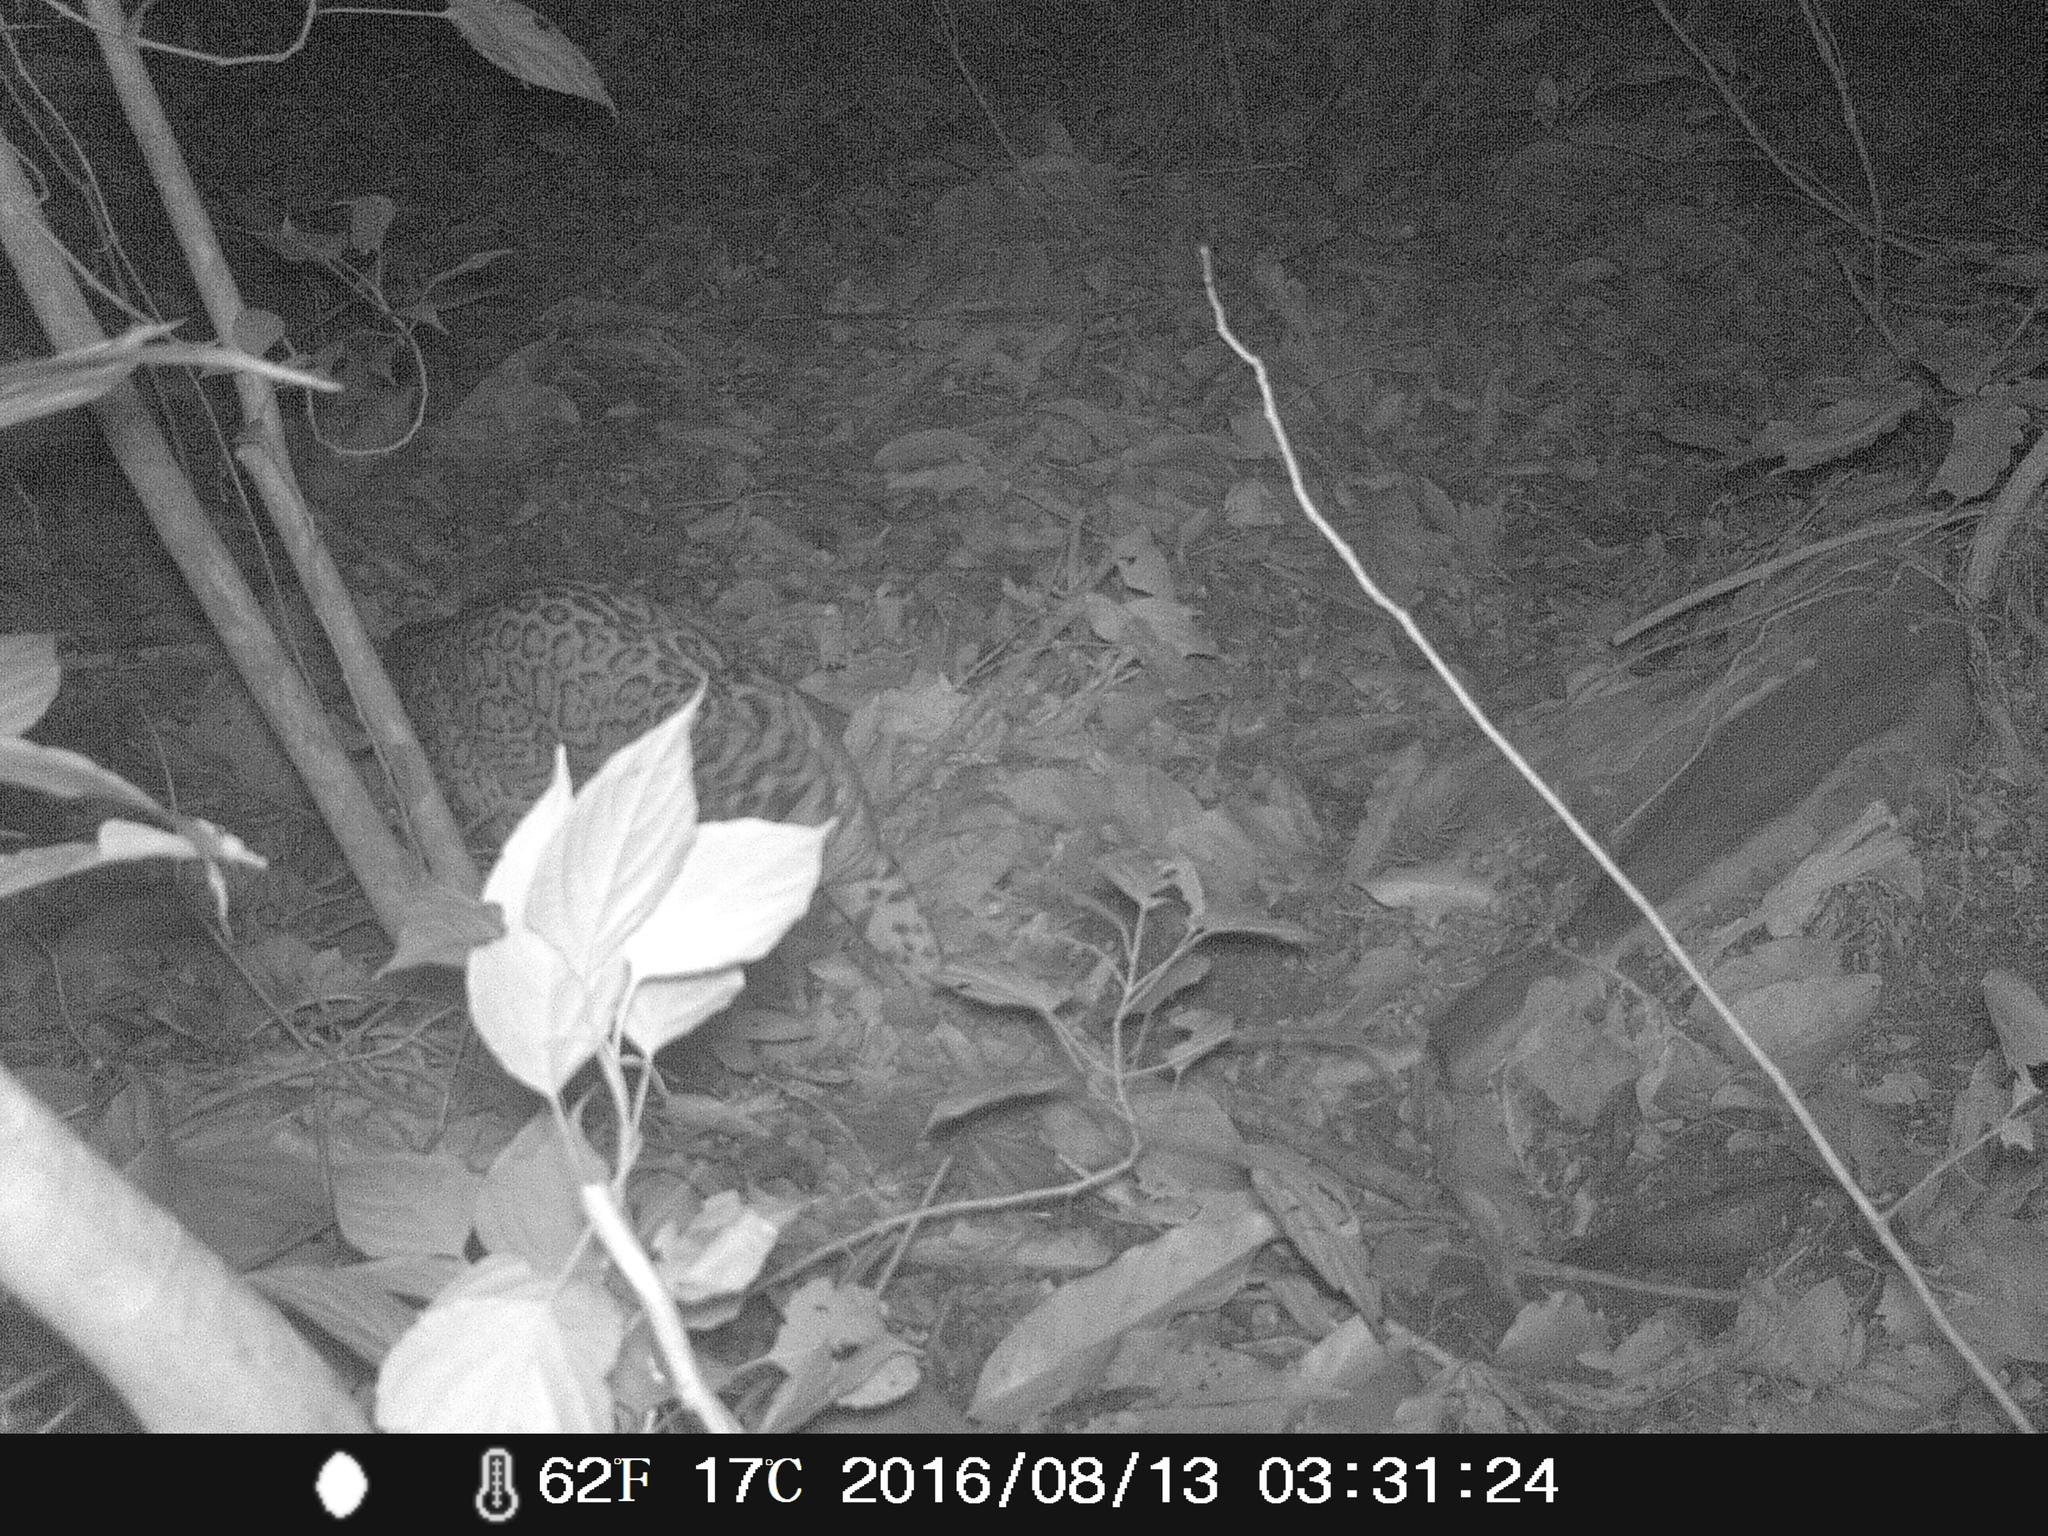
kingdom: Animalia
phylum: Chordata
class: Mammalia
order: Carnivora
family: Felidae
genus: Leopardus
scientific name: Leopardus pardalis
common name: Ocelot
